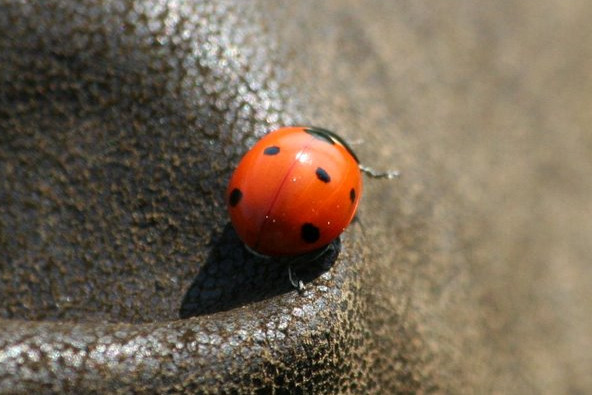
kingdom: Animalia
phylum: Arthropoda
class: Insecta
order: Coleoptera
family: Coccinellidae
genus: Coccinella
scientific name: Coccinella septempunctata
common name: Sevenspotted lady beetle
